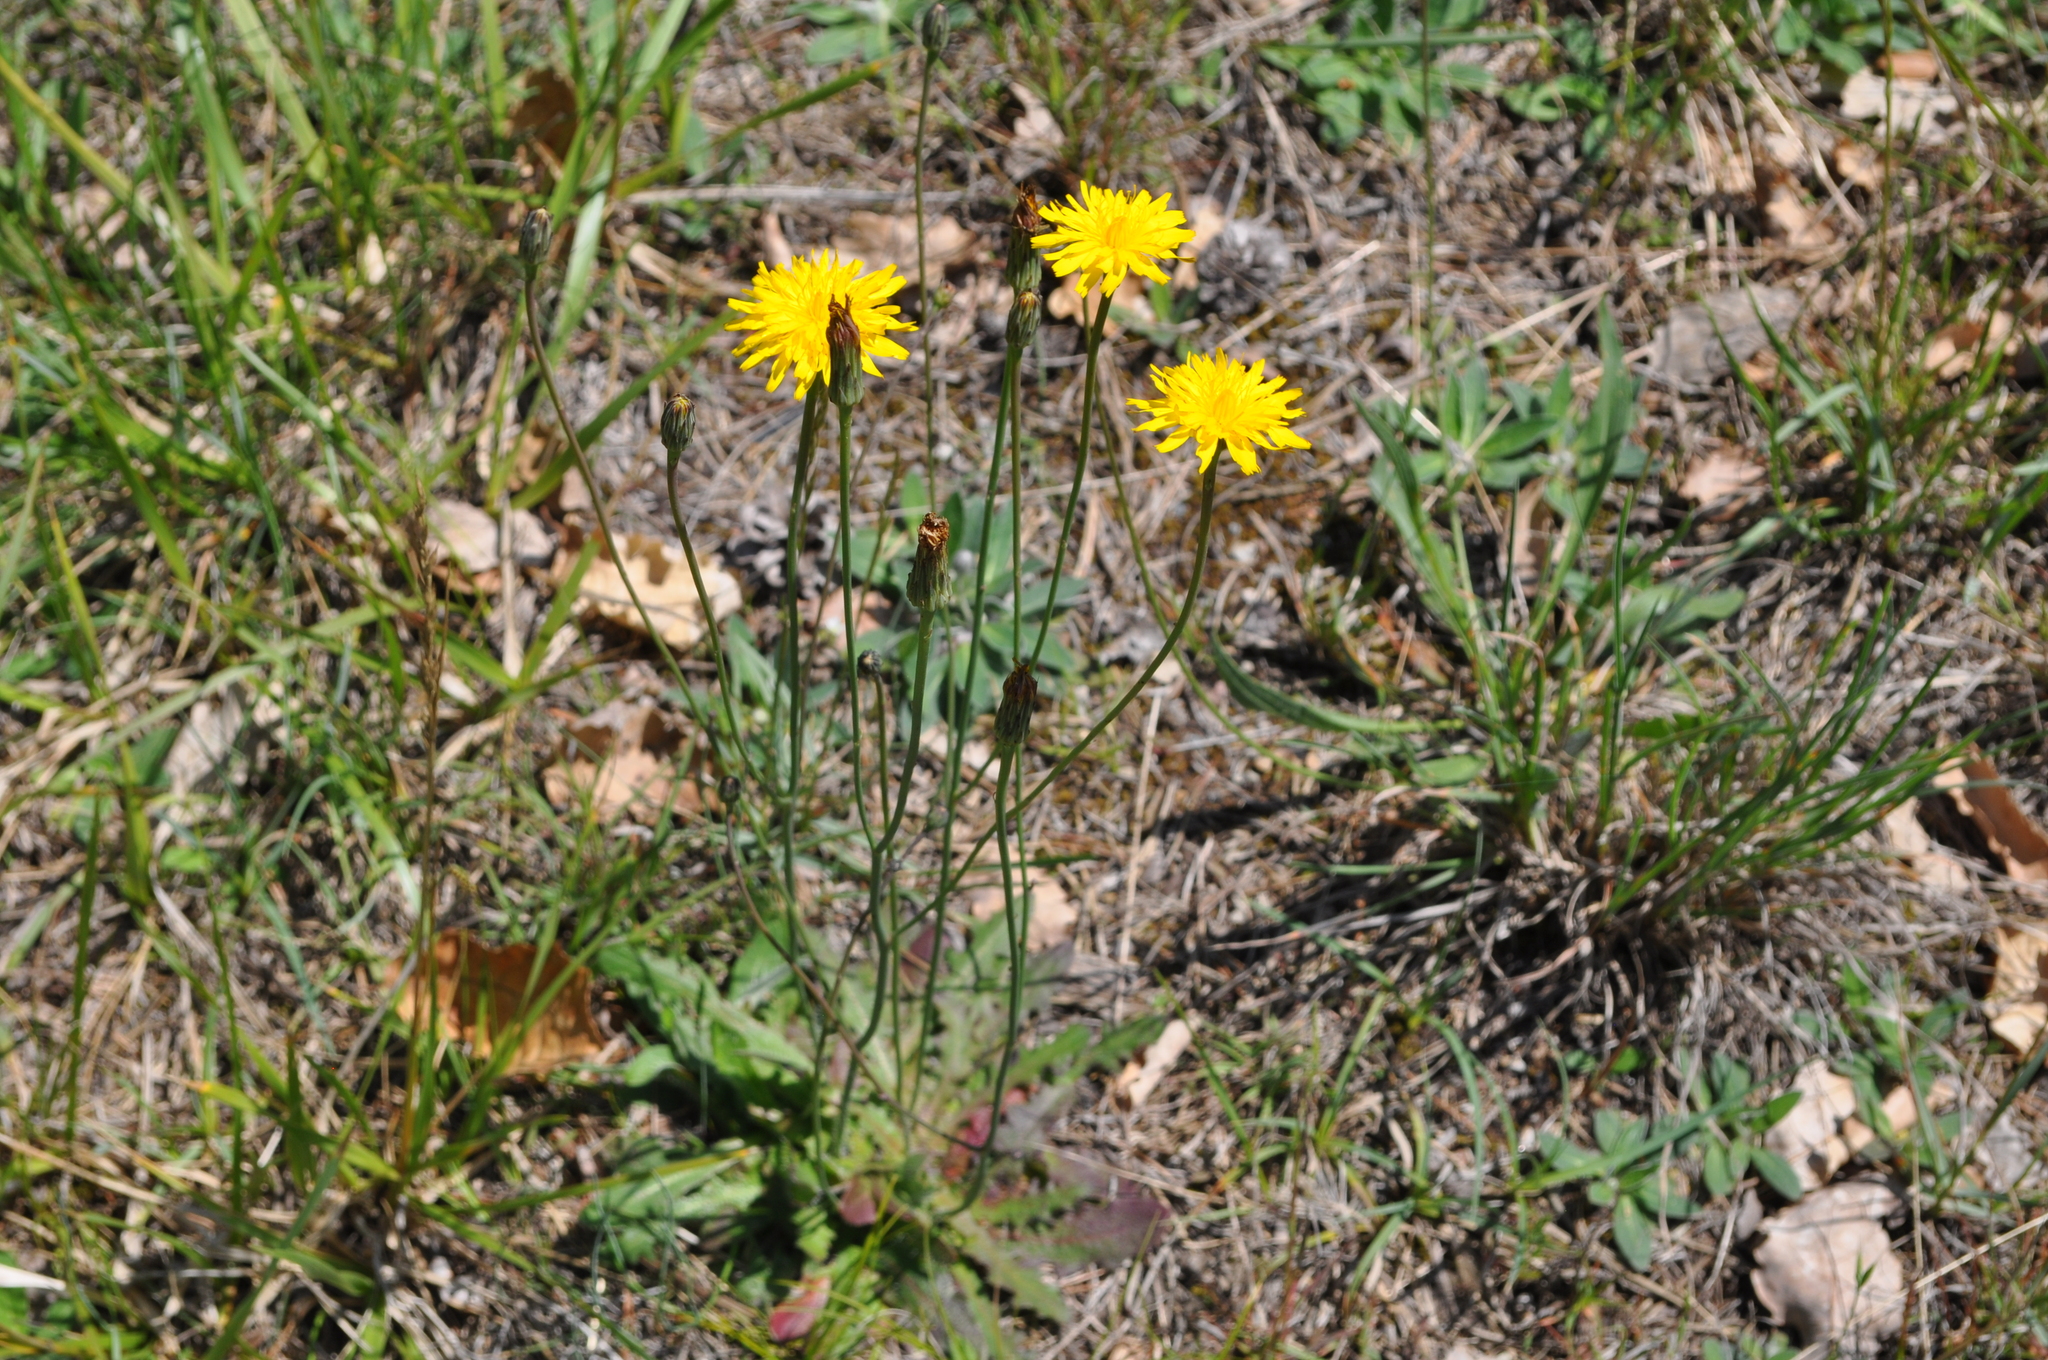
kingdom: Plantae
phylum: Tracheophyta
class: Magnoliopsida
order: Asterales
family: Asteraceae
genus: Hypochaeris
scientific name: Hypochaeris radicata
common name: Flatweed
